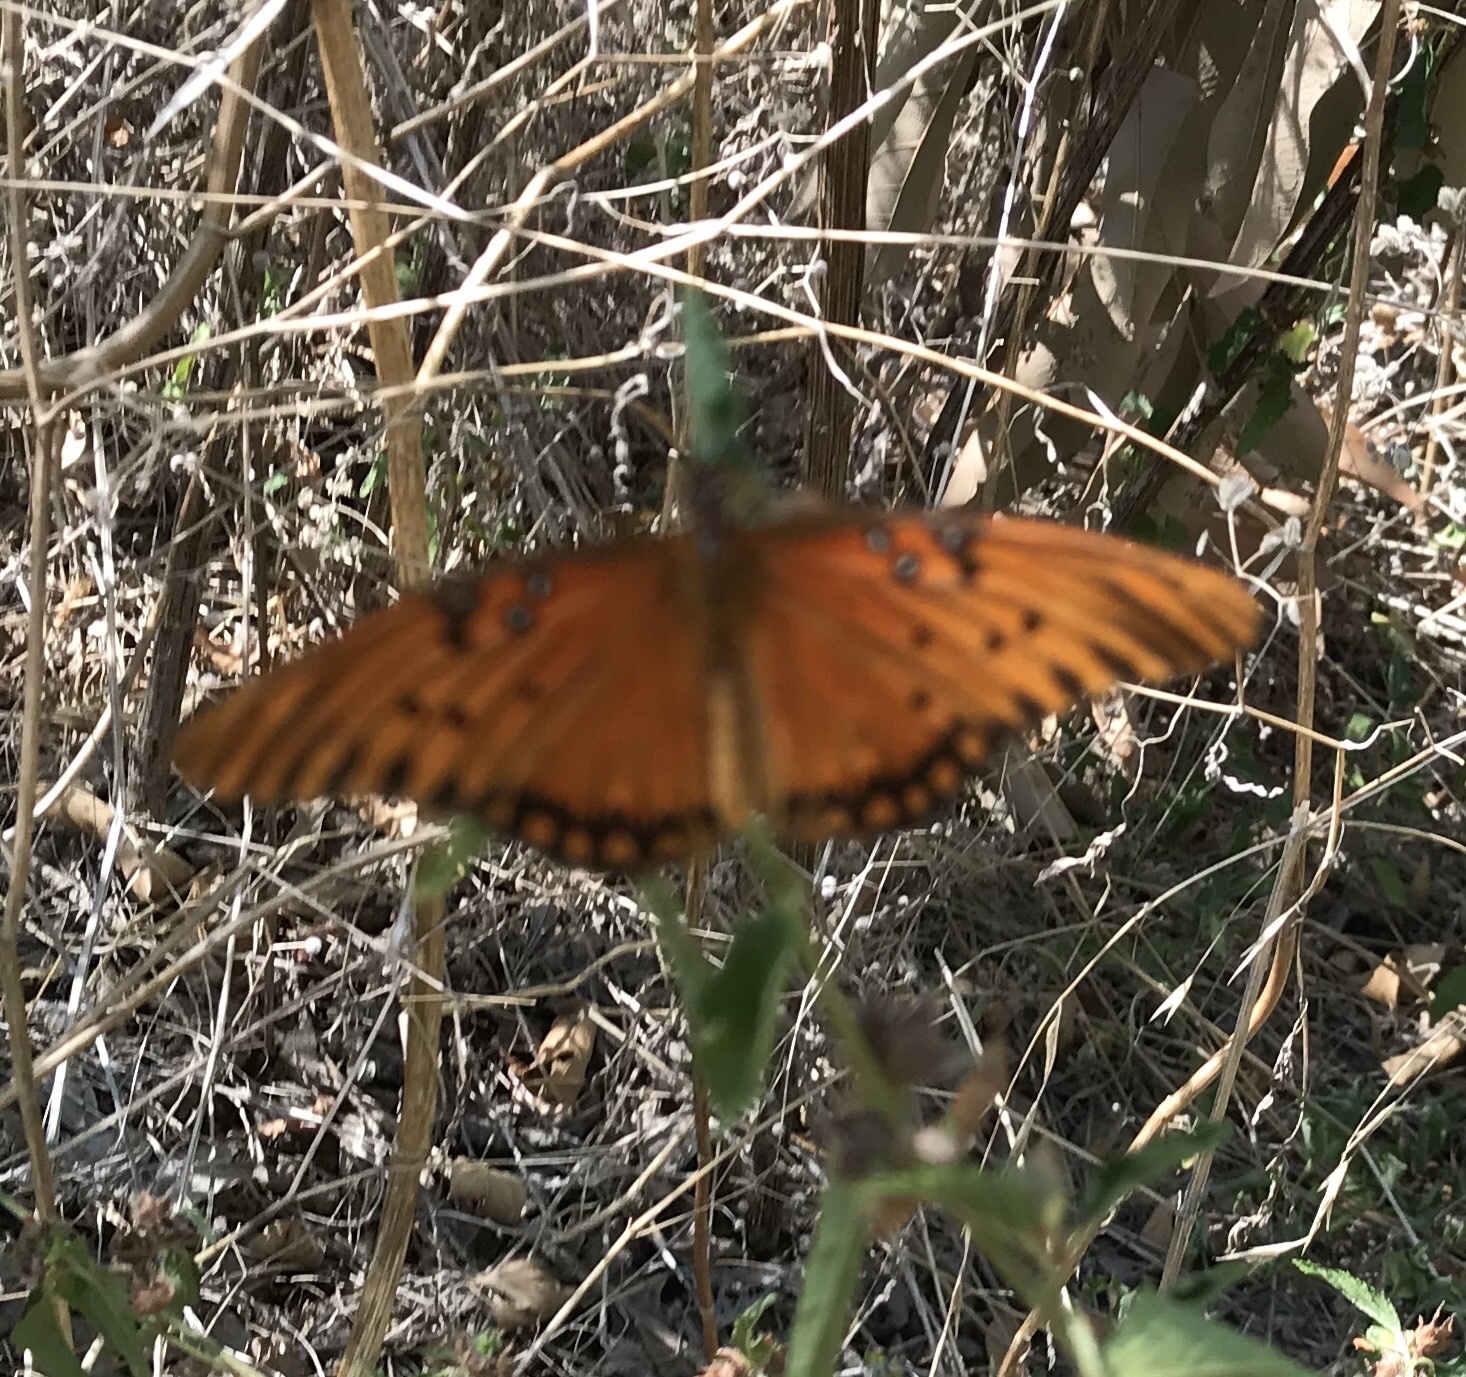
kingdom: Animalia
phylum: Arthropoda
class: Insecta
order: Lepidoptera
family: Nymphalidae
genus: Dione
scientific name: Dione vanillae
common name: Gulf fritillary
